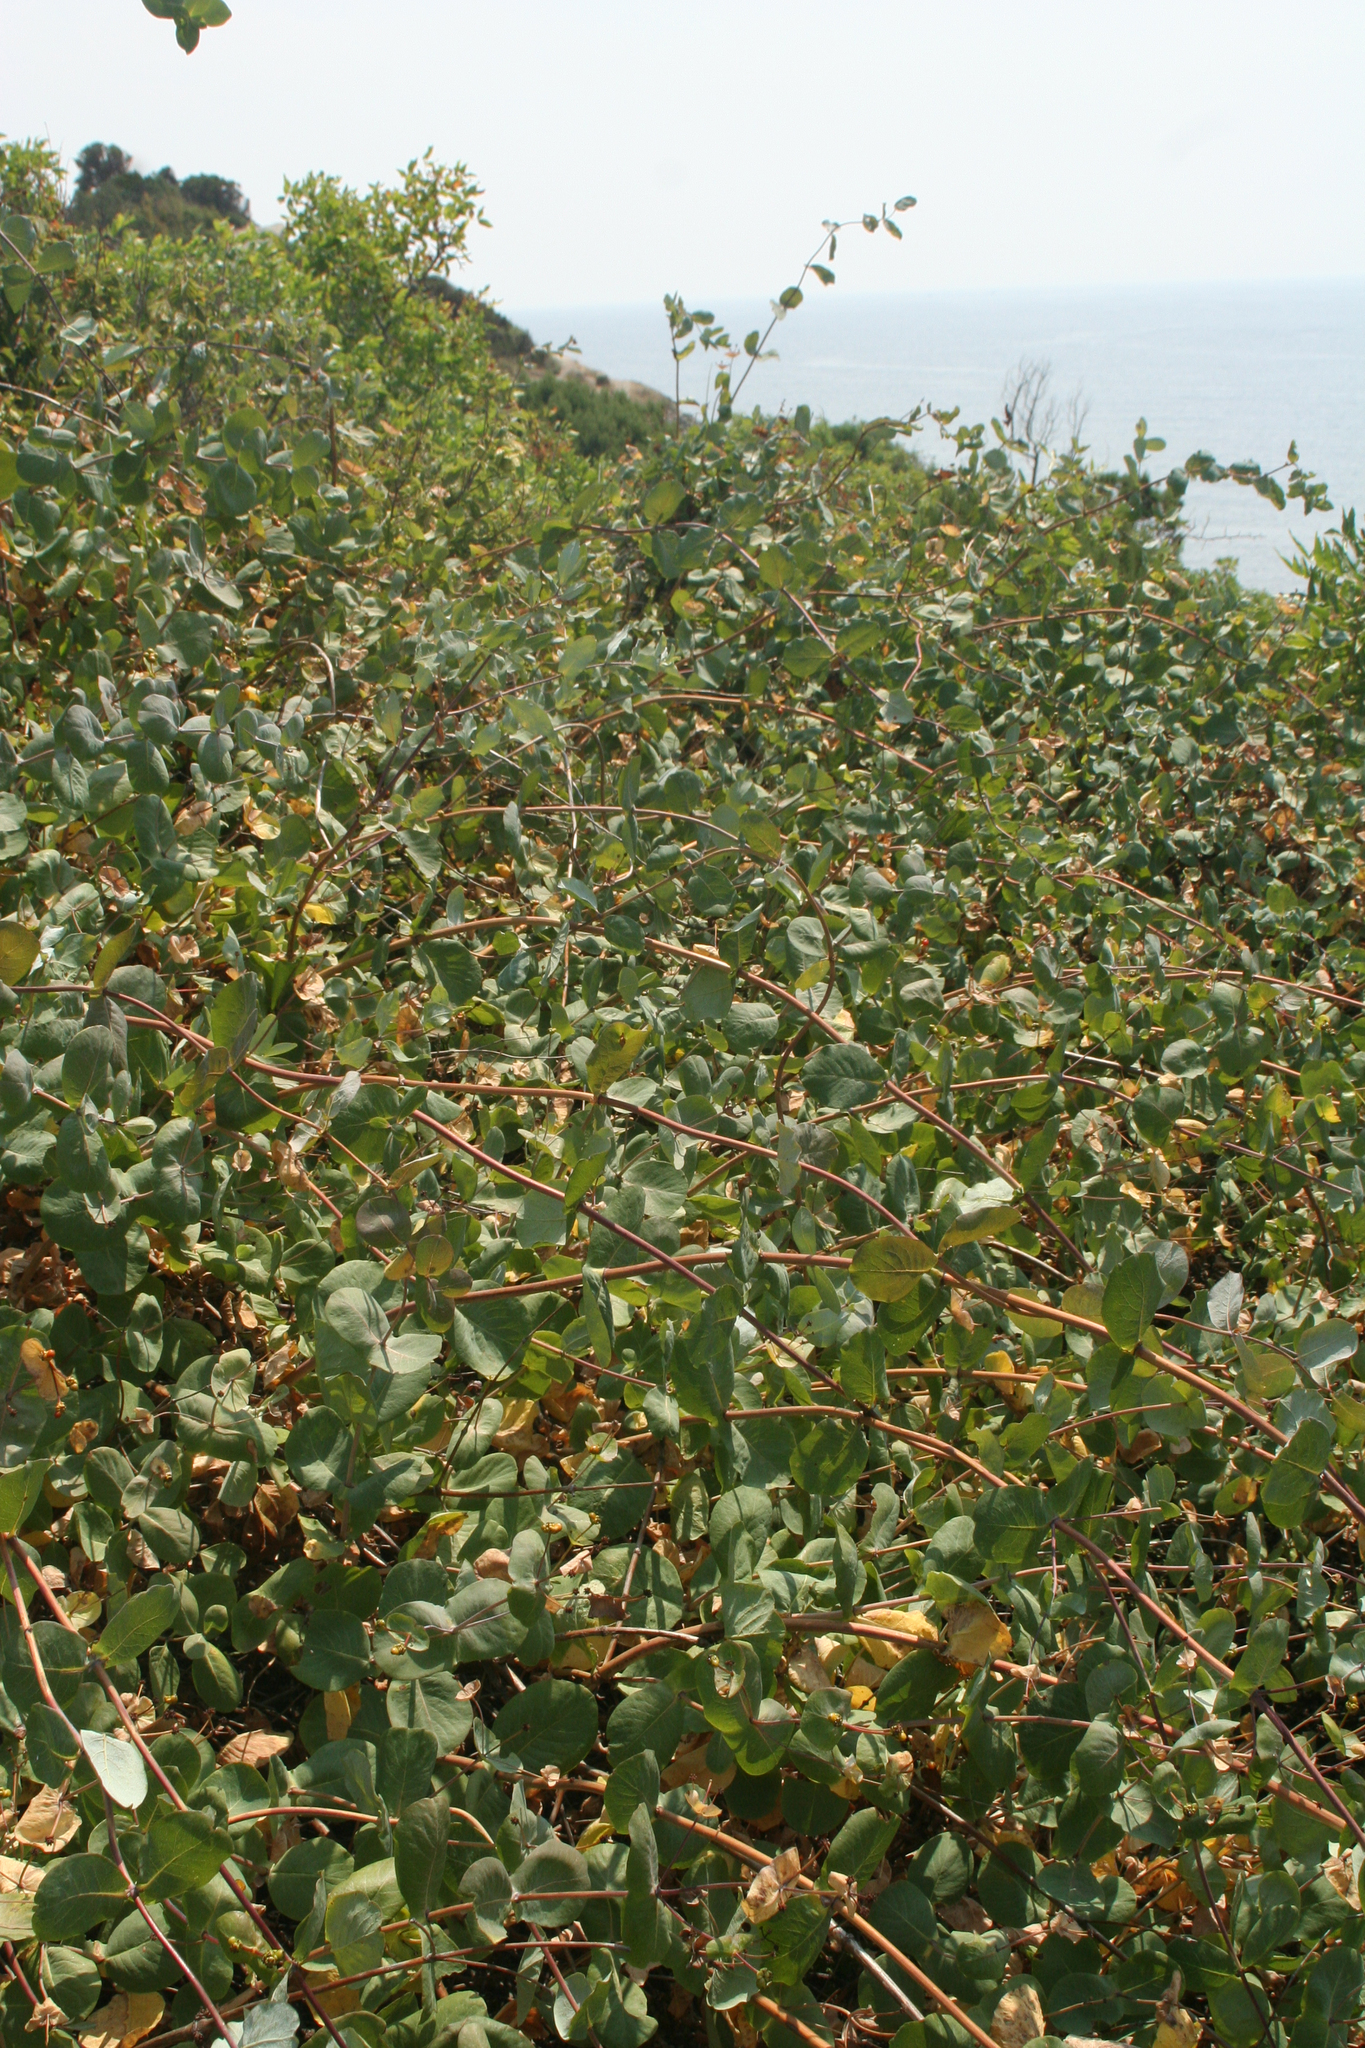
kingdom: Plantae
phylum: Tracheophyta
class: Magnoliopsida
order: Dipsacales
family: Caprifoliaceae
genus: Lonicera
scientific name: Lonicera etrusca
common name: Etruscan honeysuckle
